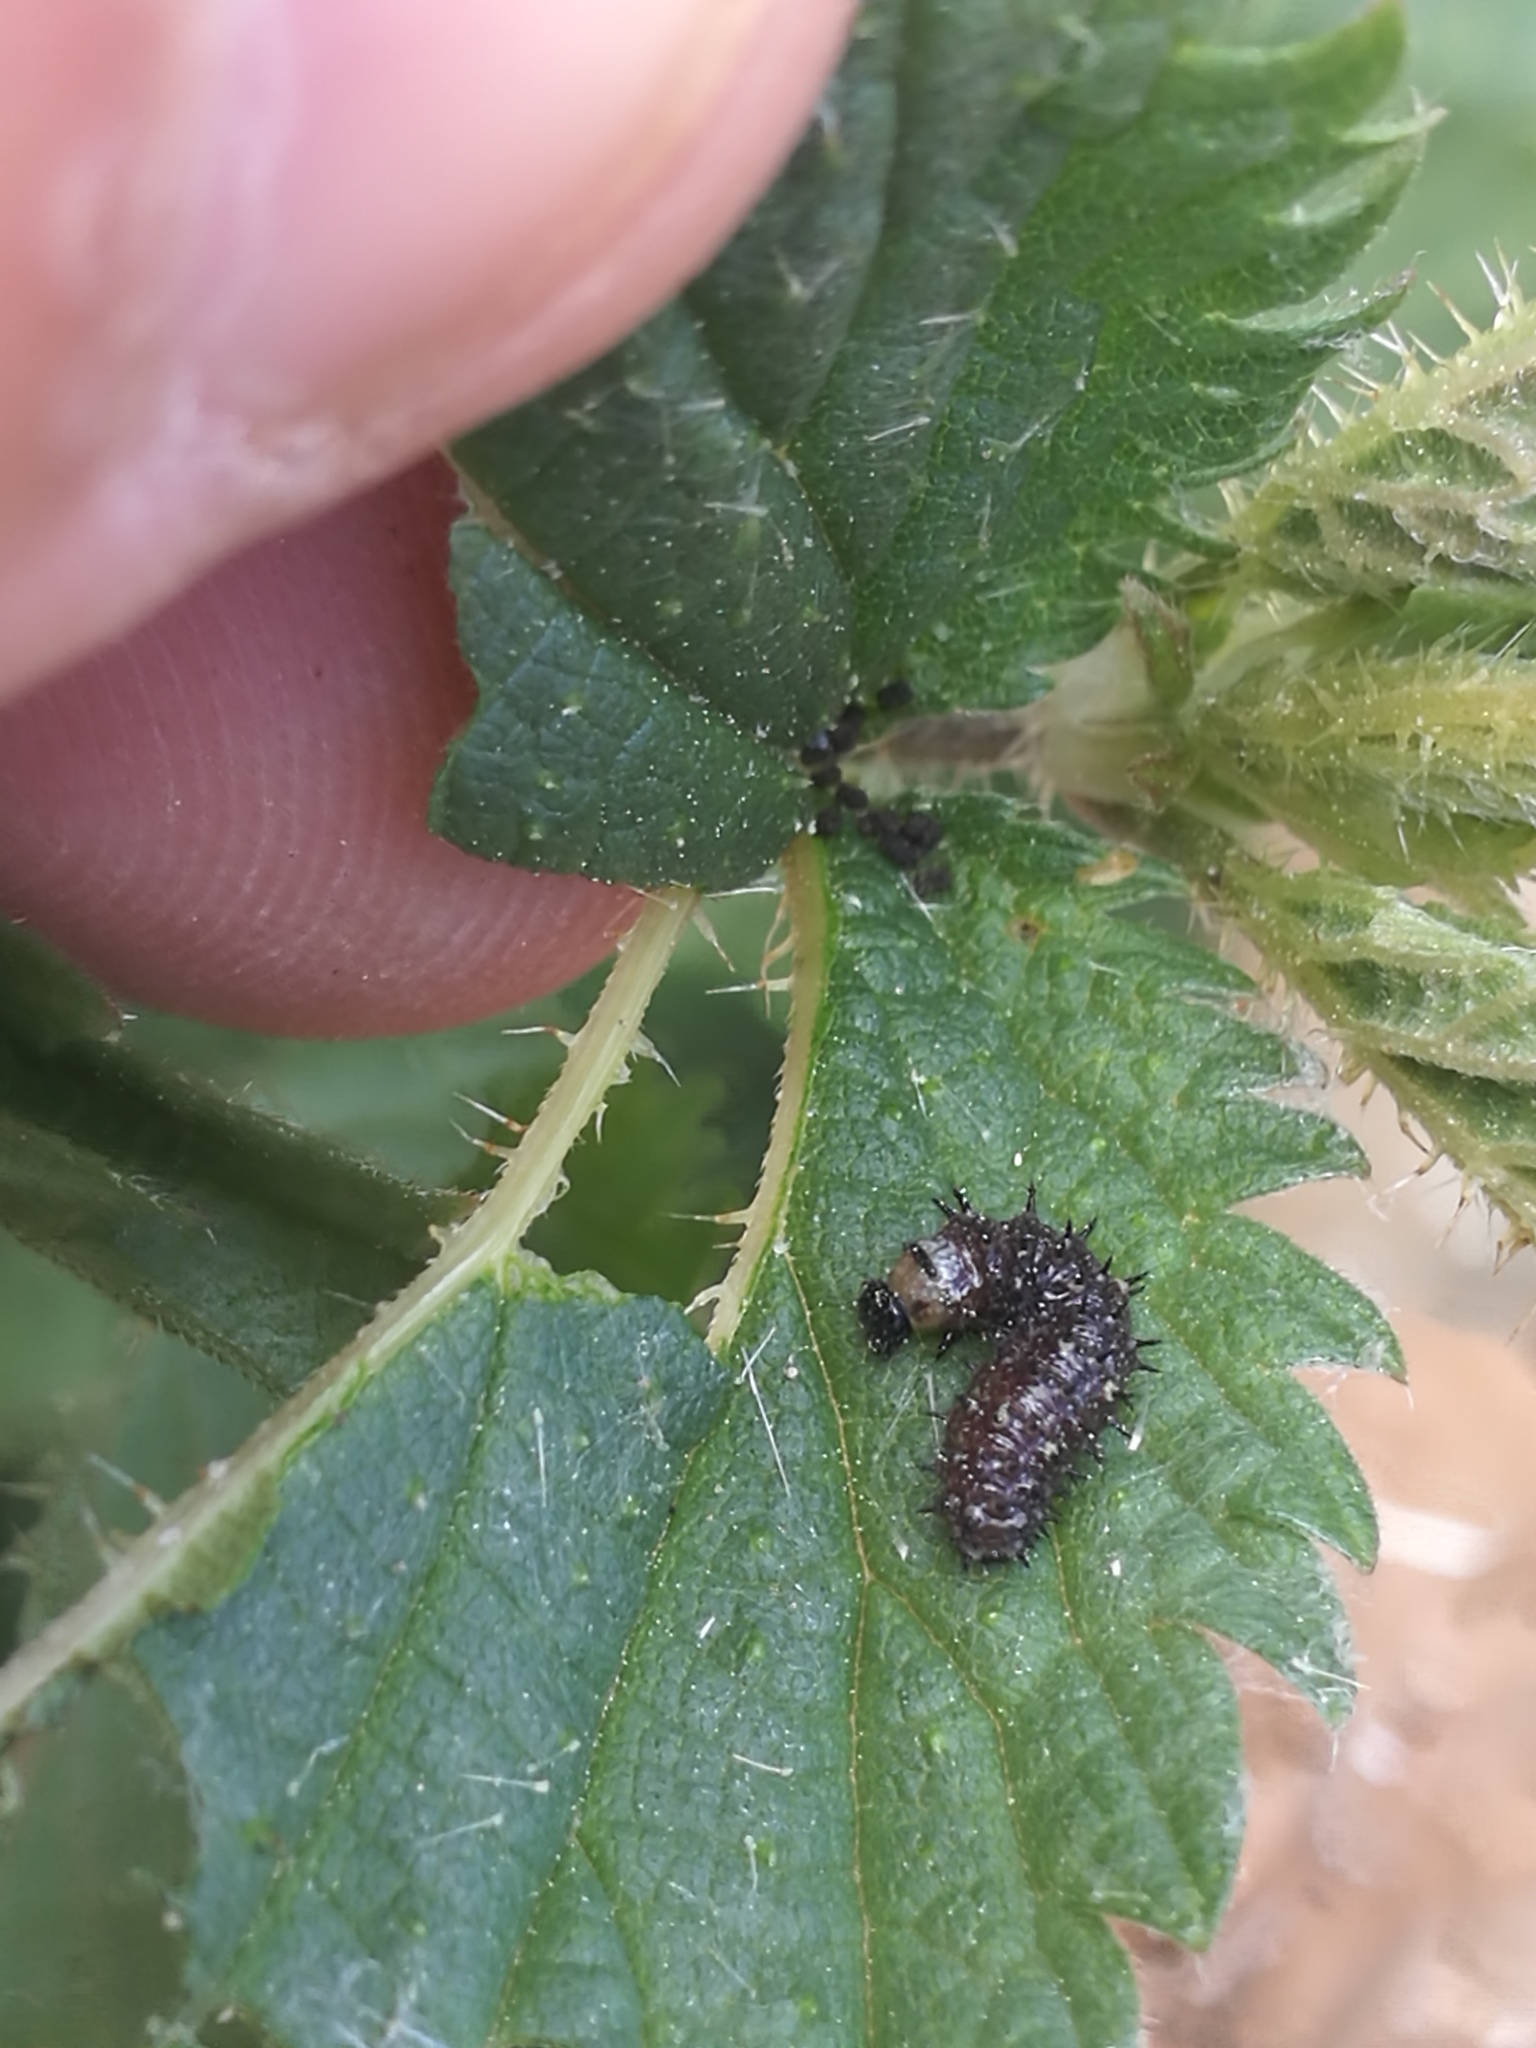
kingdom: Animalia
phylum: Arthropoda
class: Insecta
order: Lepidoptera
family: Nymphalidae
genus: Vanessa
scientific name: Vanessa atalanta
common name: Red admiral
